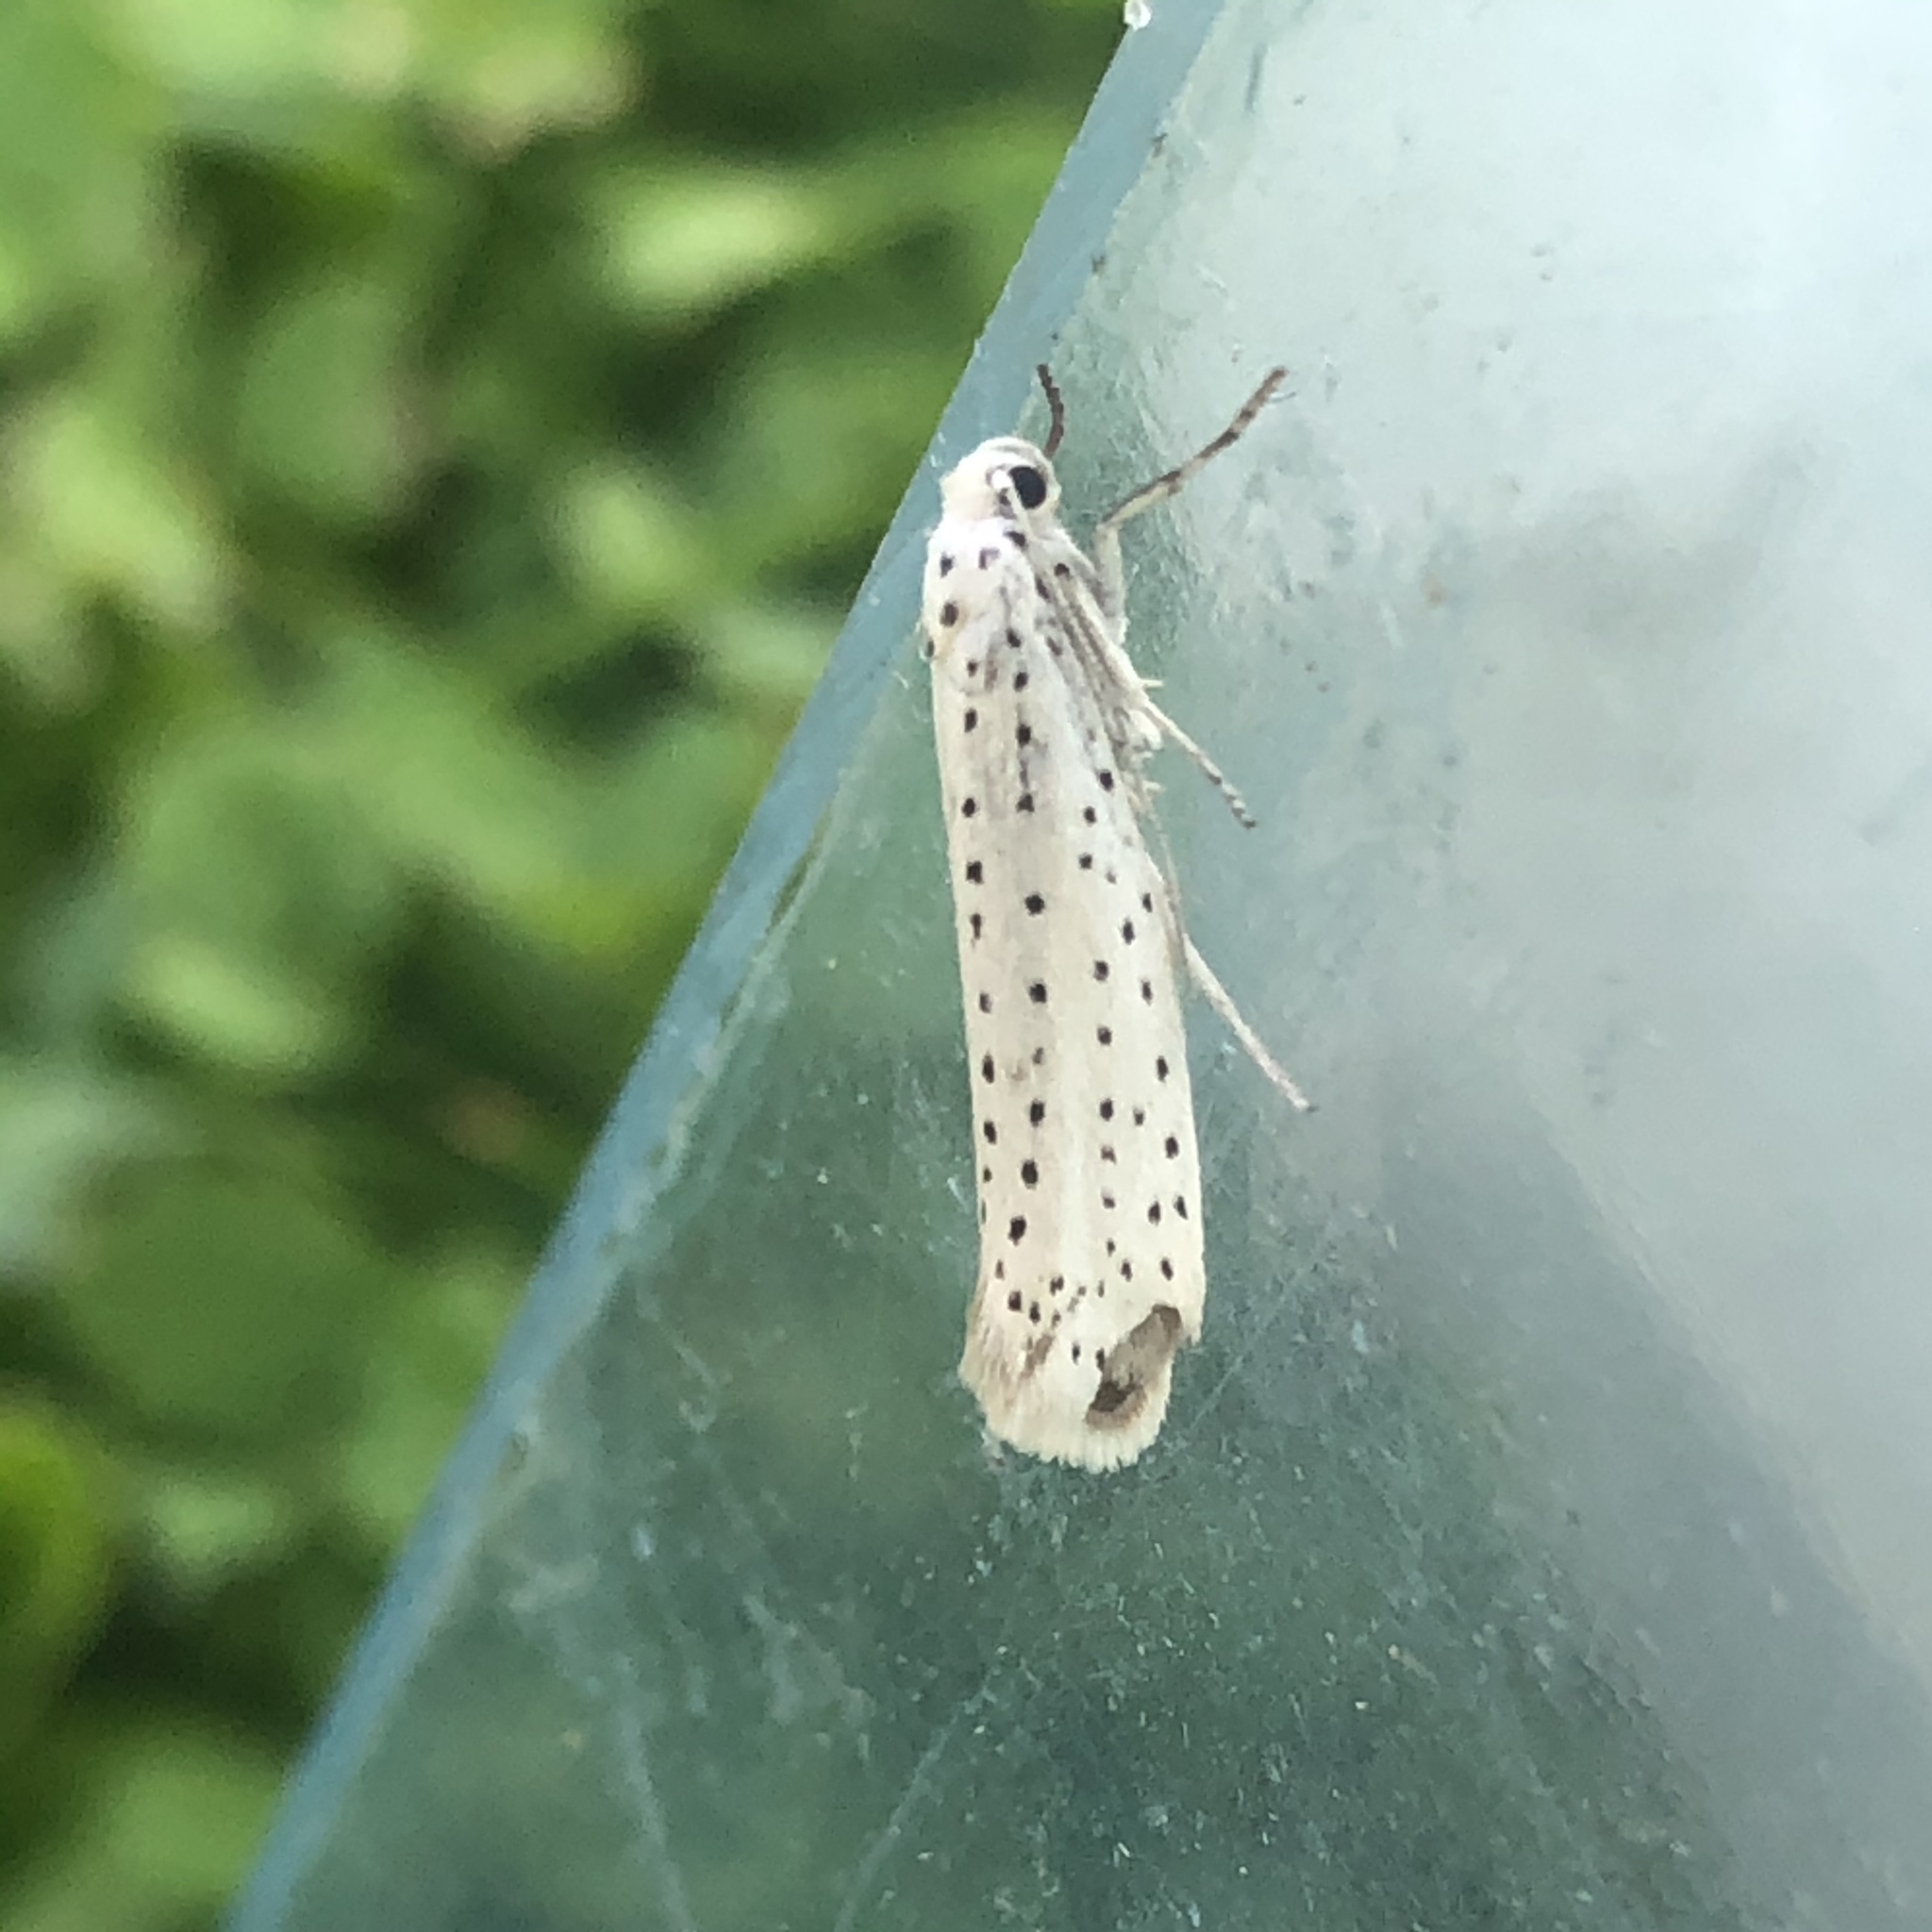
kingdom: Animalia
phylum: Arthropoda
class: Insecta
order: Lepidoptera
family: Yponomeutidae
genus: Yponomeuta
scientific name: Yponomeuta evonymella
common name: Bird-cherry ermine
